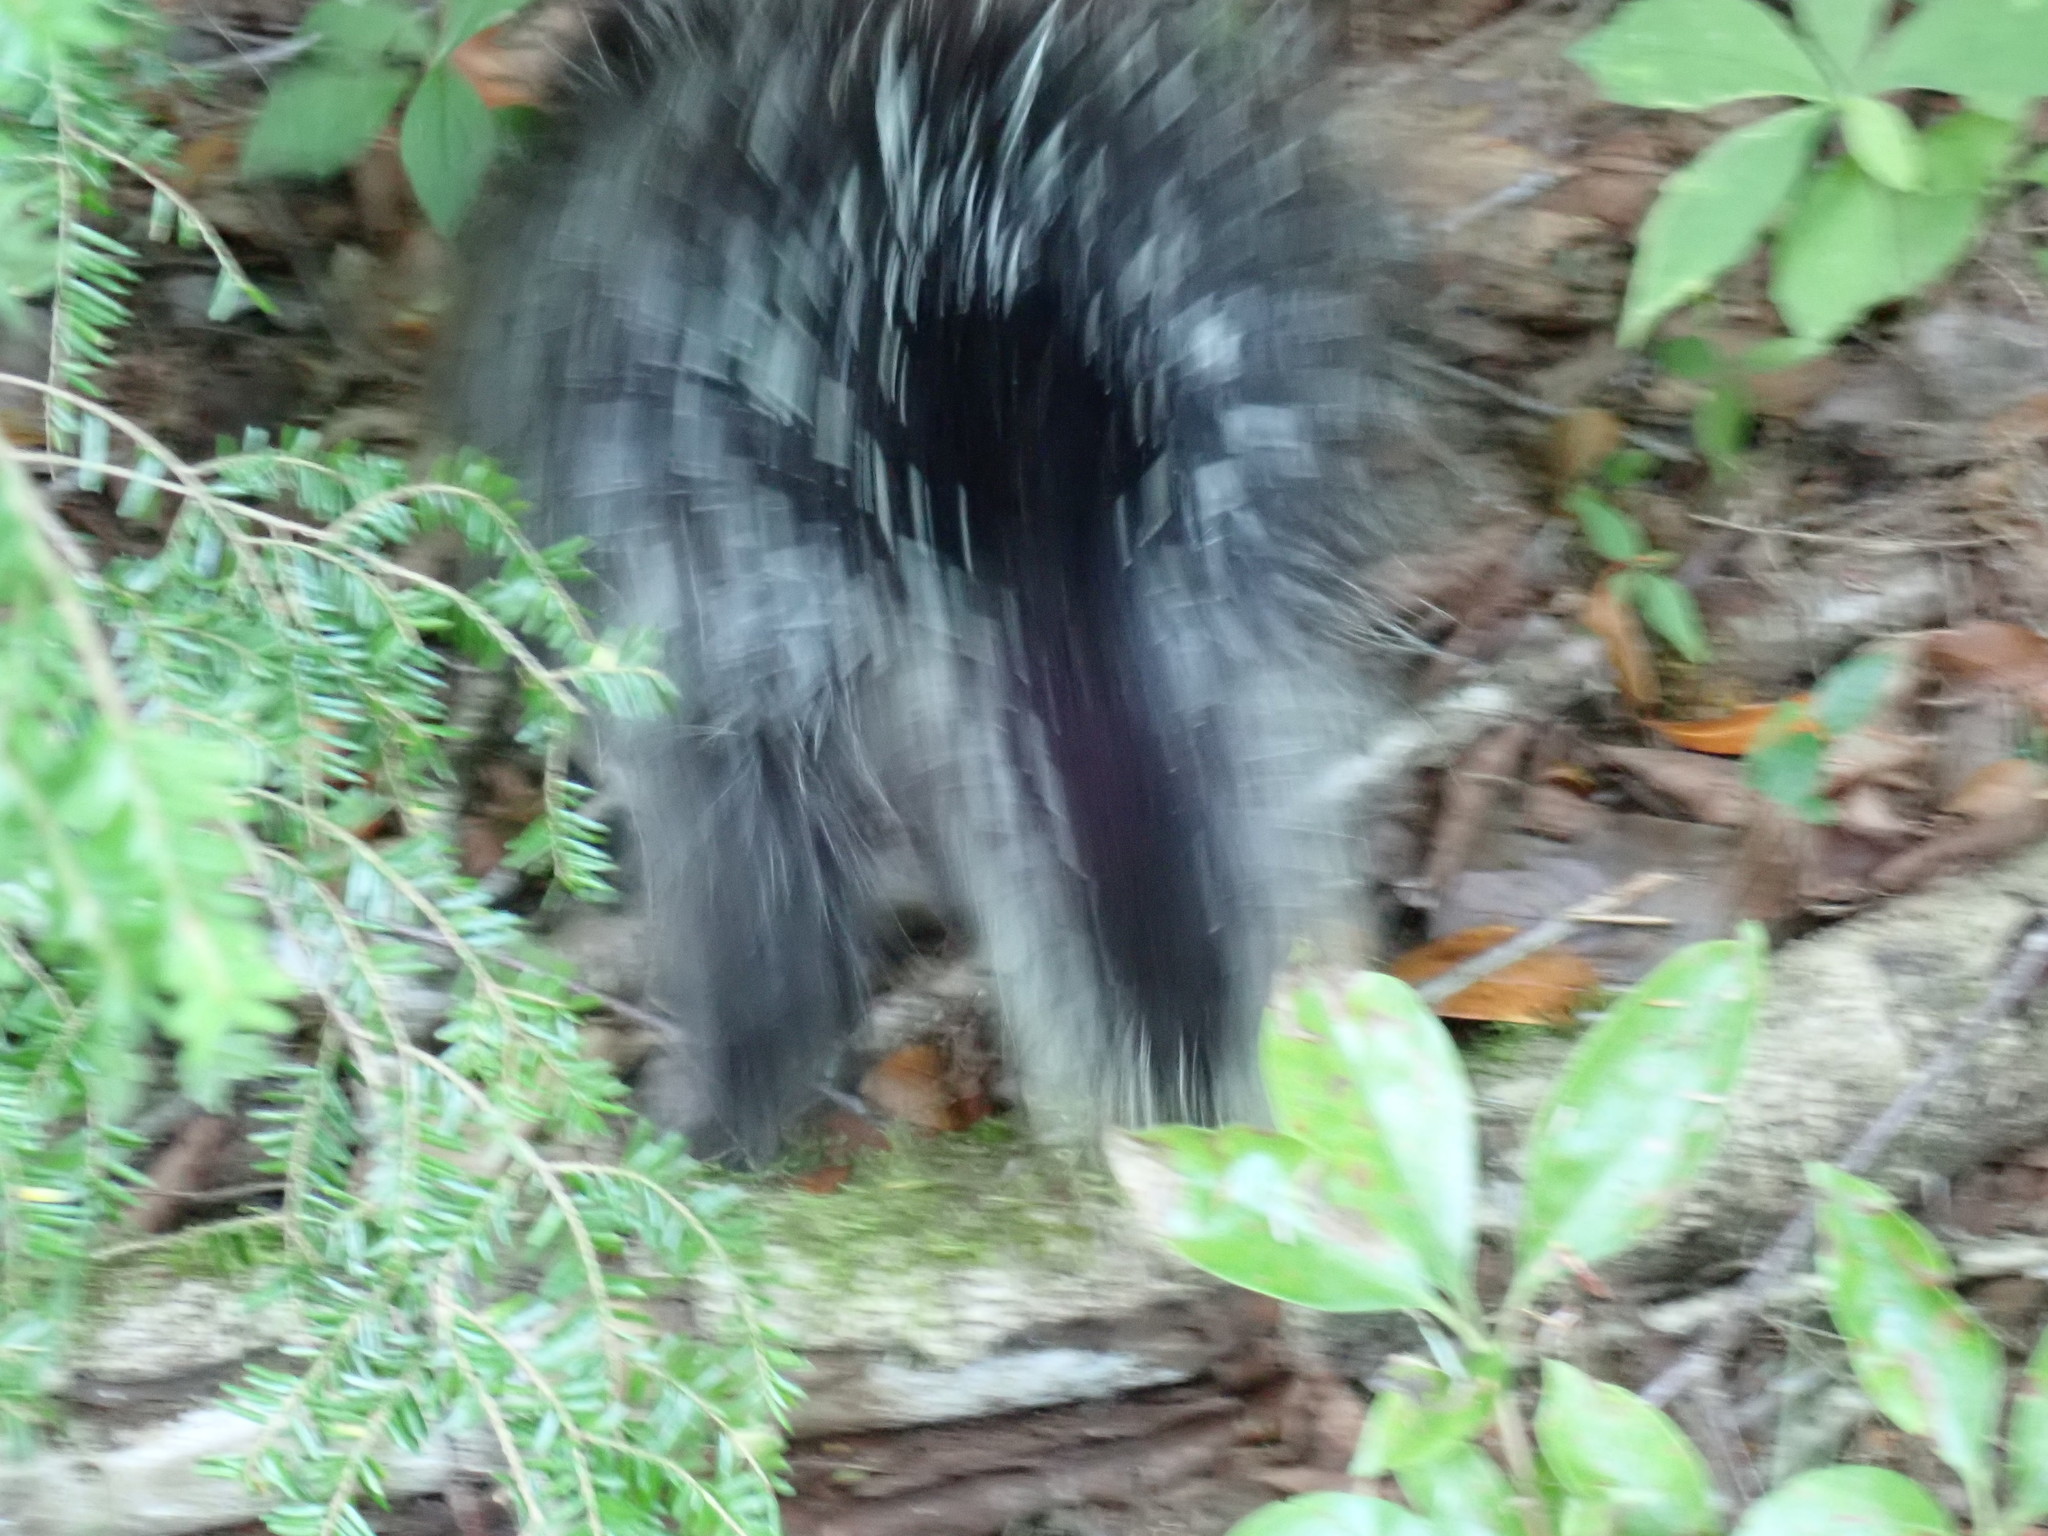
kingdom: Animalia
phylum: Chordata
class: Mammalia
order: Rodentia
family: Erethizontidae
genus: Erethizon
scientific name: Erethizon dorsatus
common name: North american porcupine
